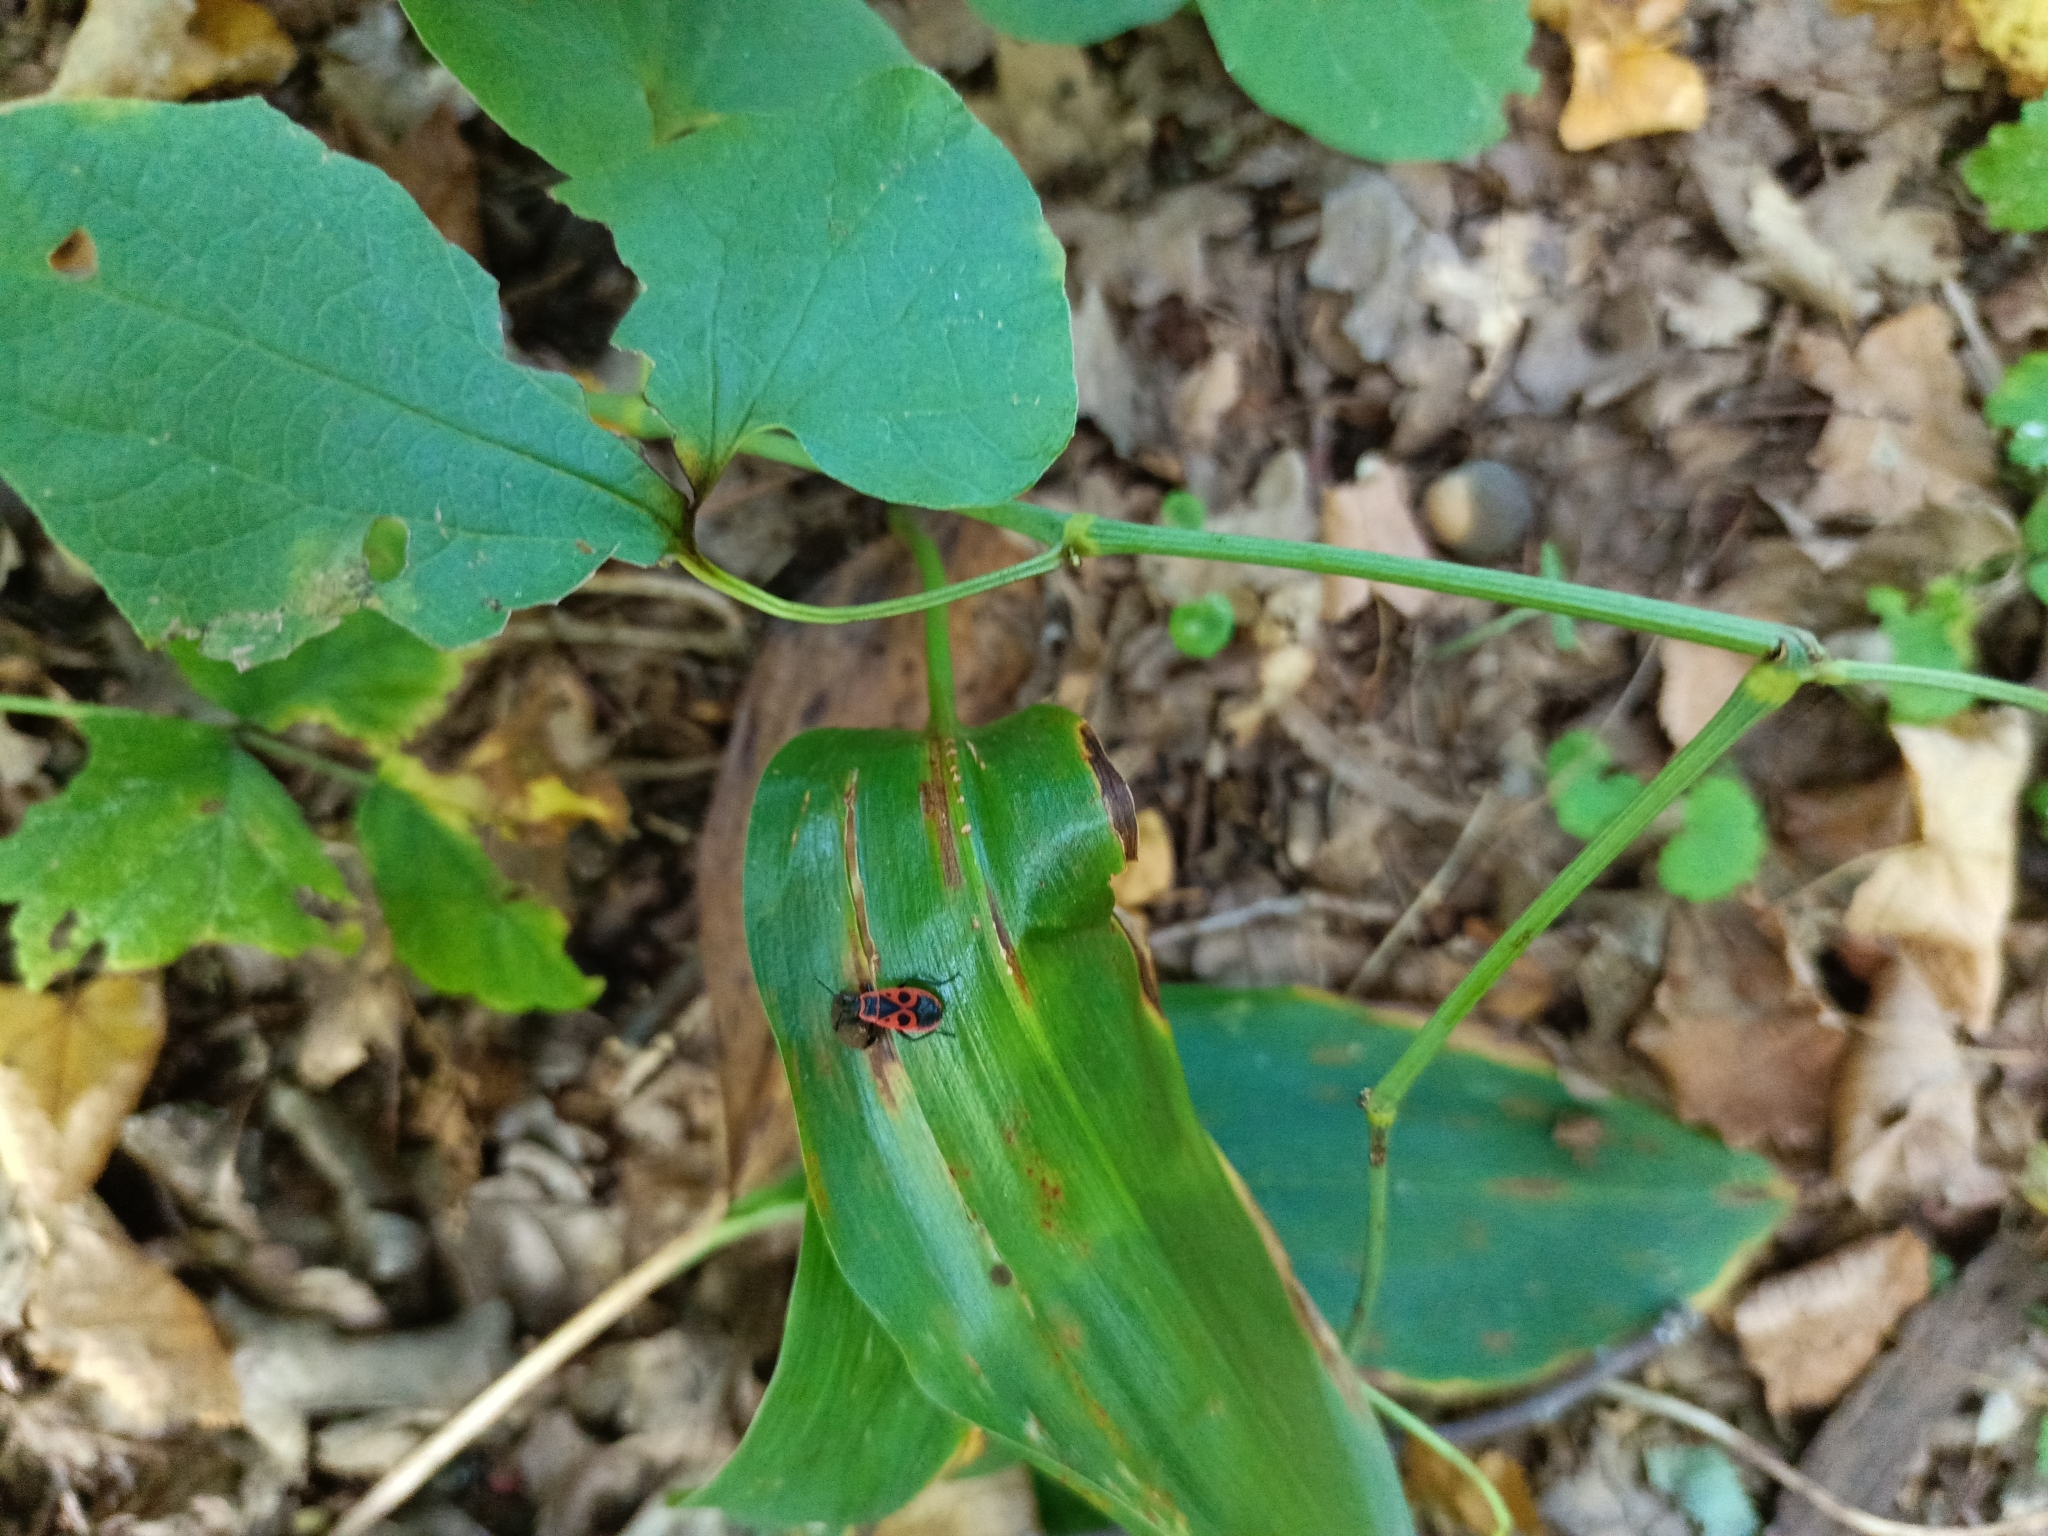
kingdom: Animalia
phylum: Arthropoda
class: Insecta
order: Hemiptera
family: Pyrrhocoridae
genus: Pyrrhocoris
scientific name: Pyrrhocoris apterus
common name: Firebug
